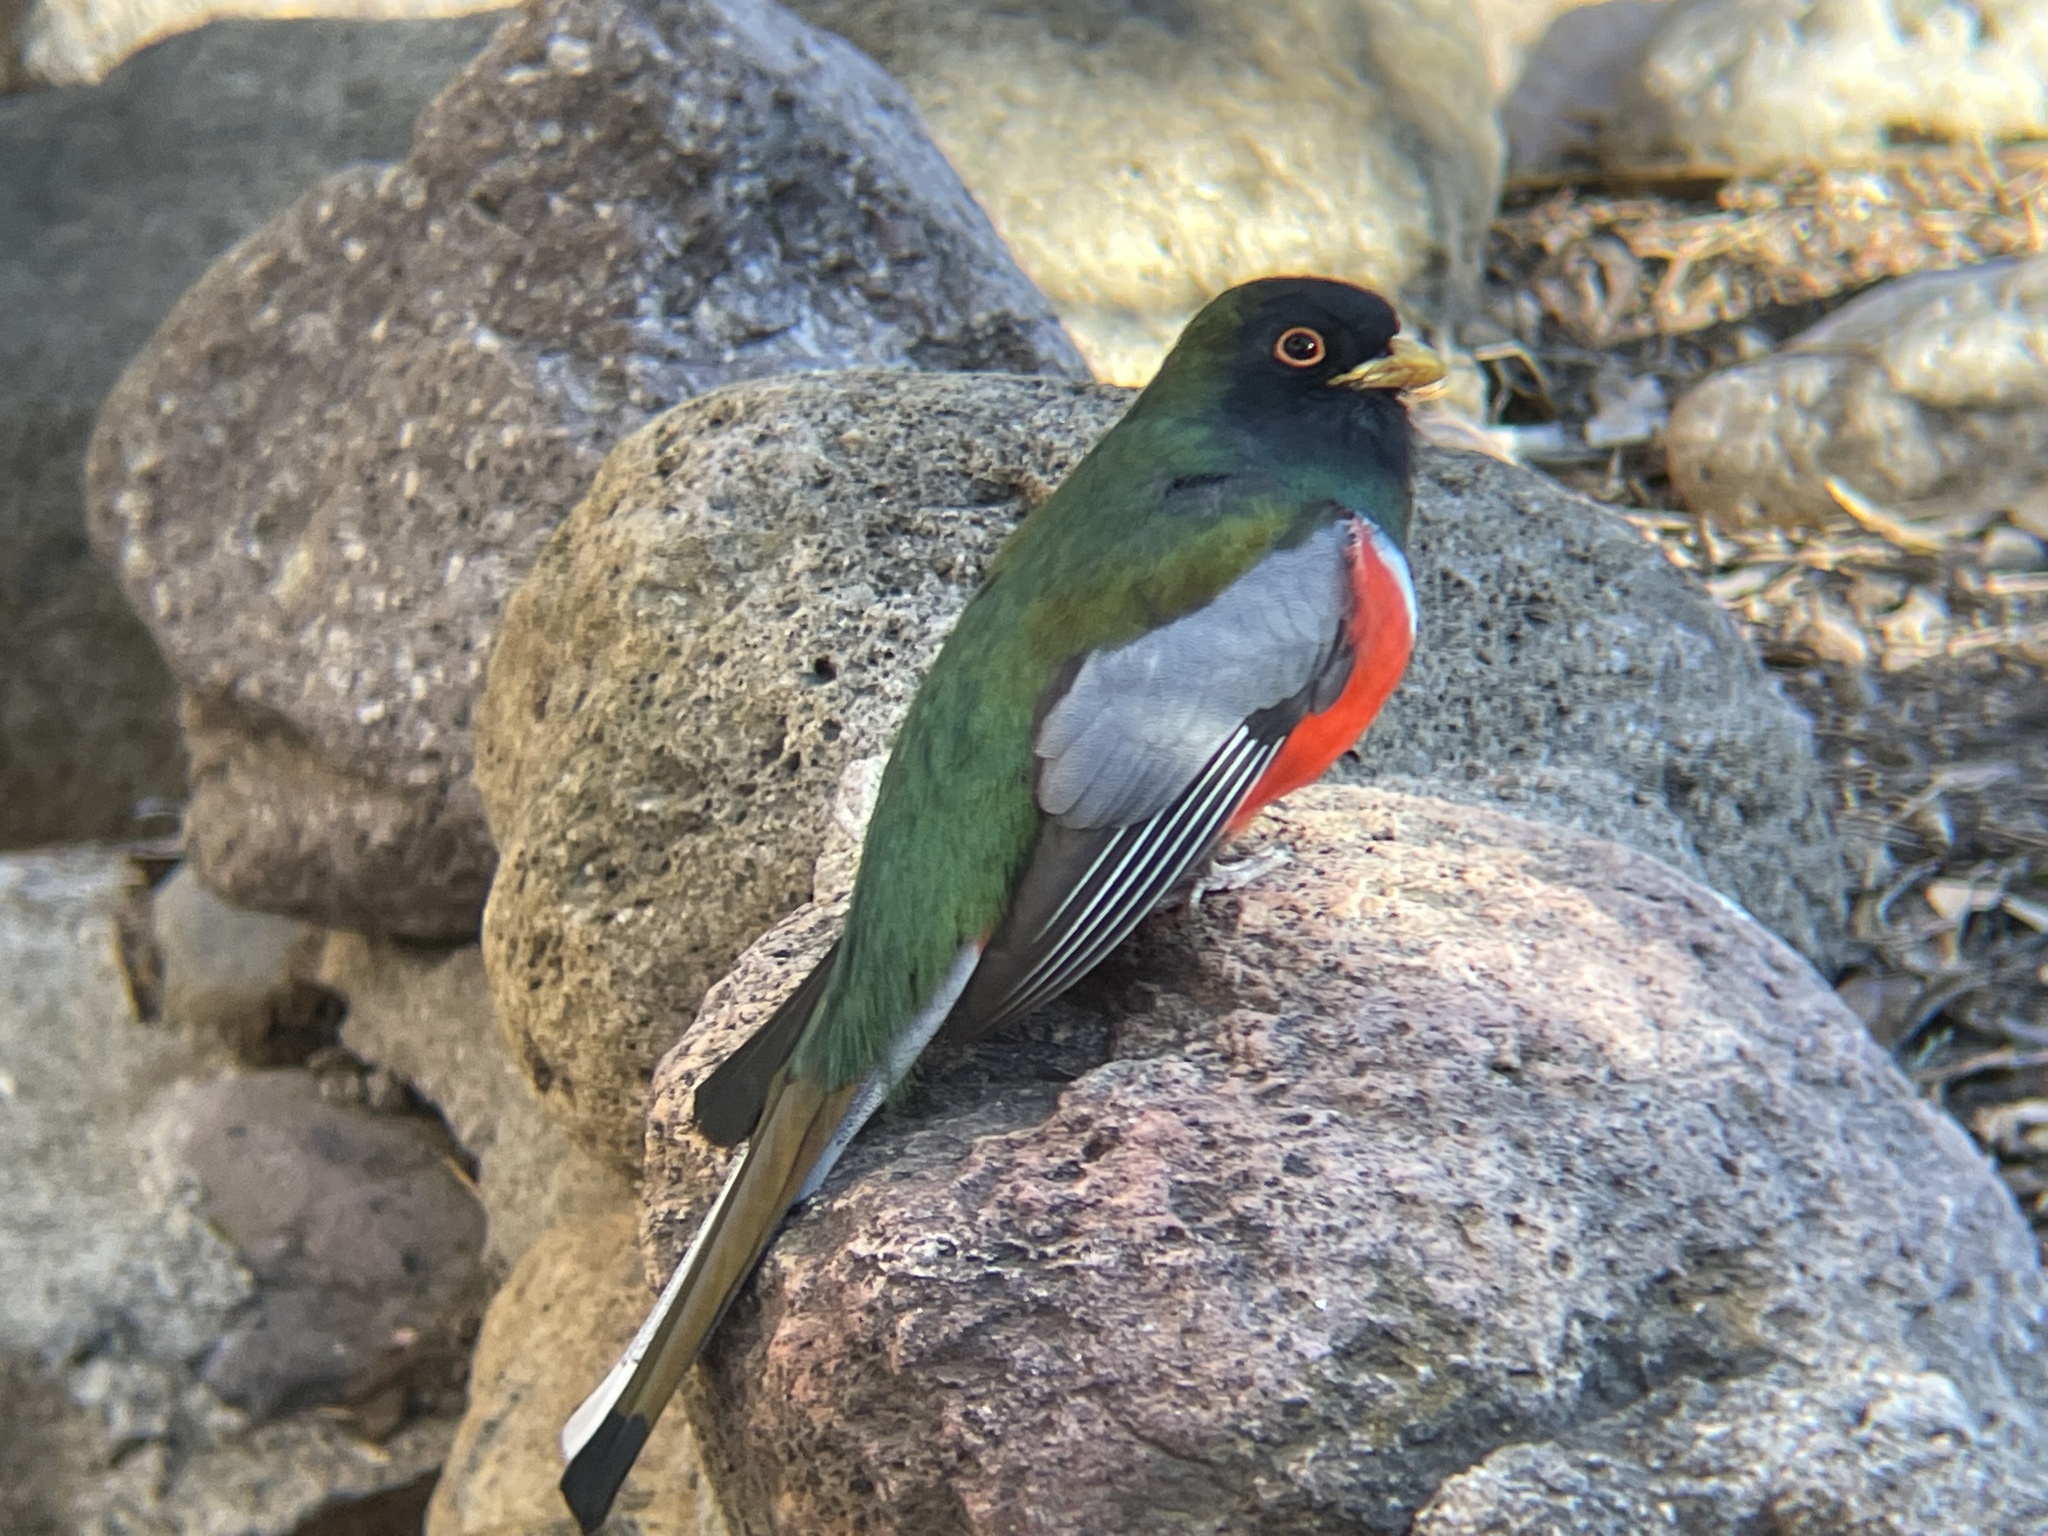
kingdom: Animalia
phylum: Chordata
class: Aves
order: Trogoniformes
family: Trogonidae
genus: Trogon
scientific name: Trogon elegans
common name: Elegant trogon
